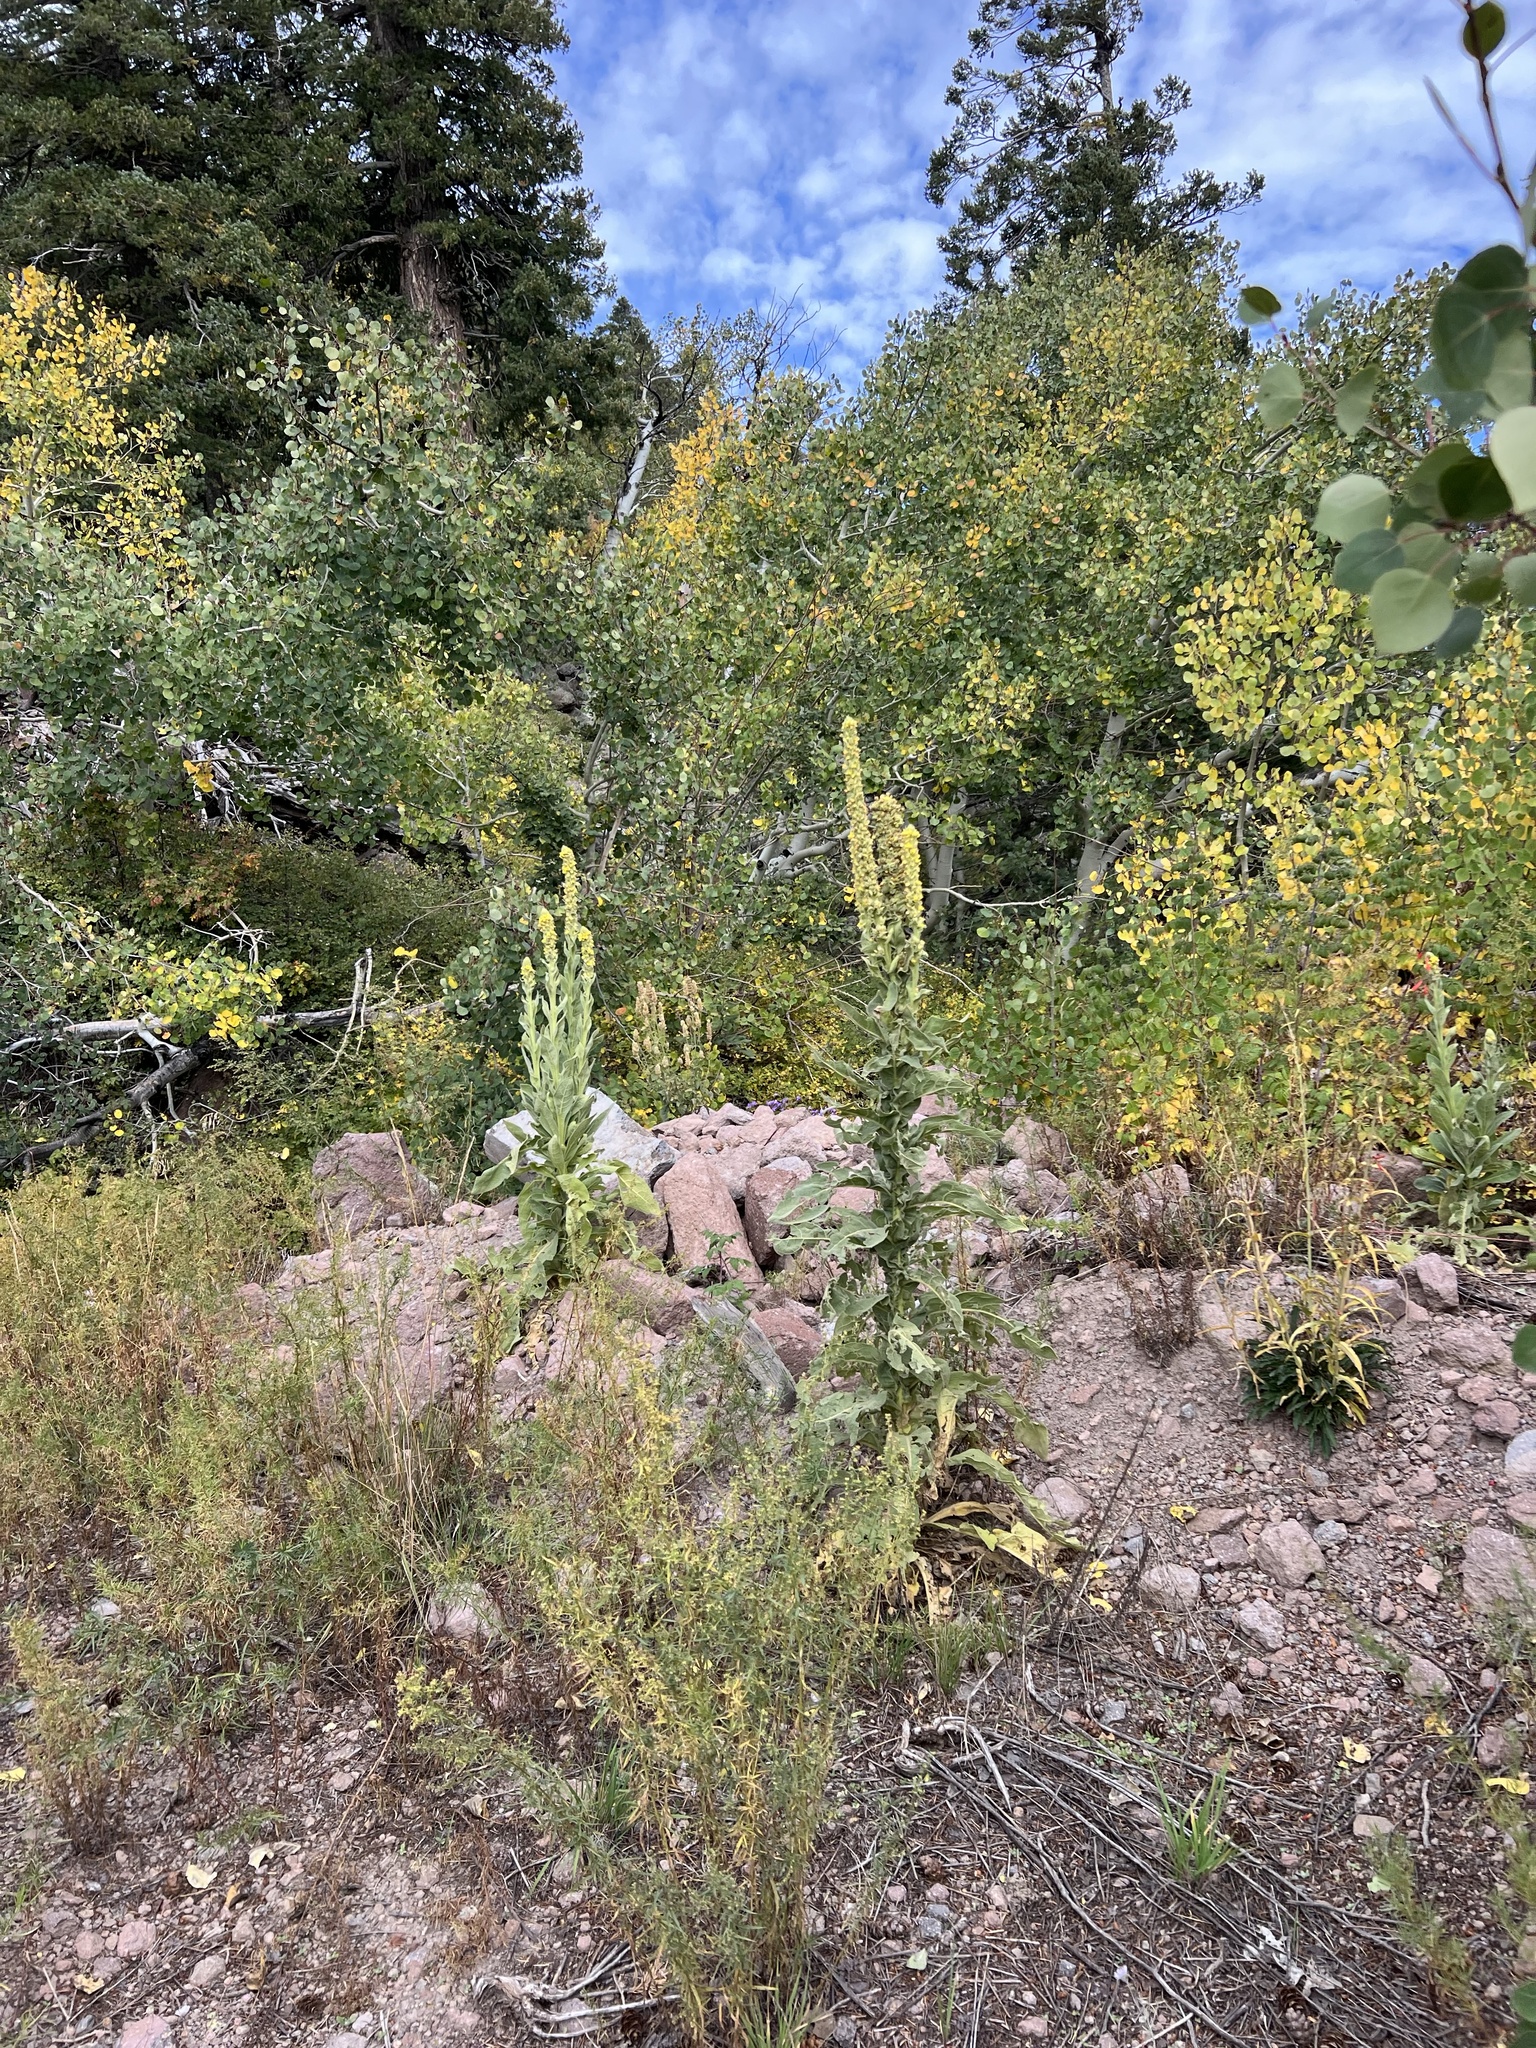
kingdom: Plantae
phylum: Tracheophyta
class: Magnoliopsida
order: Lamiales
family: Scrophulariaceae
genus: Verbascum
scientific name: Verbascum thapsus
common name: Common mullein
